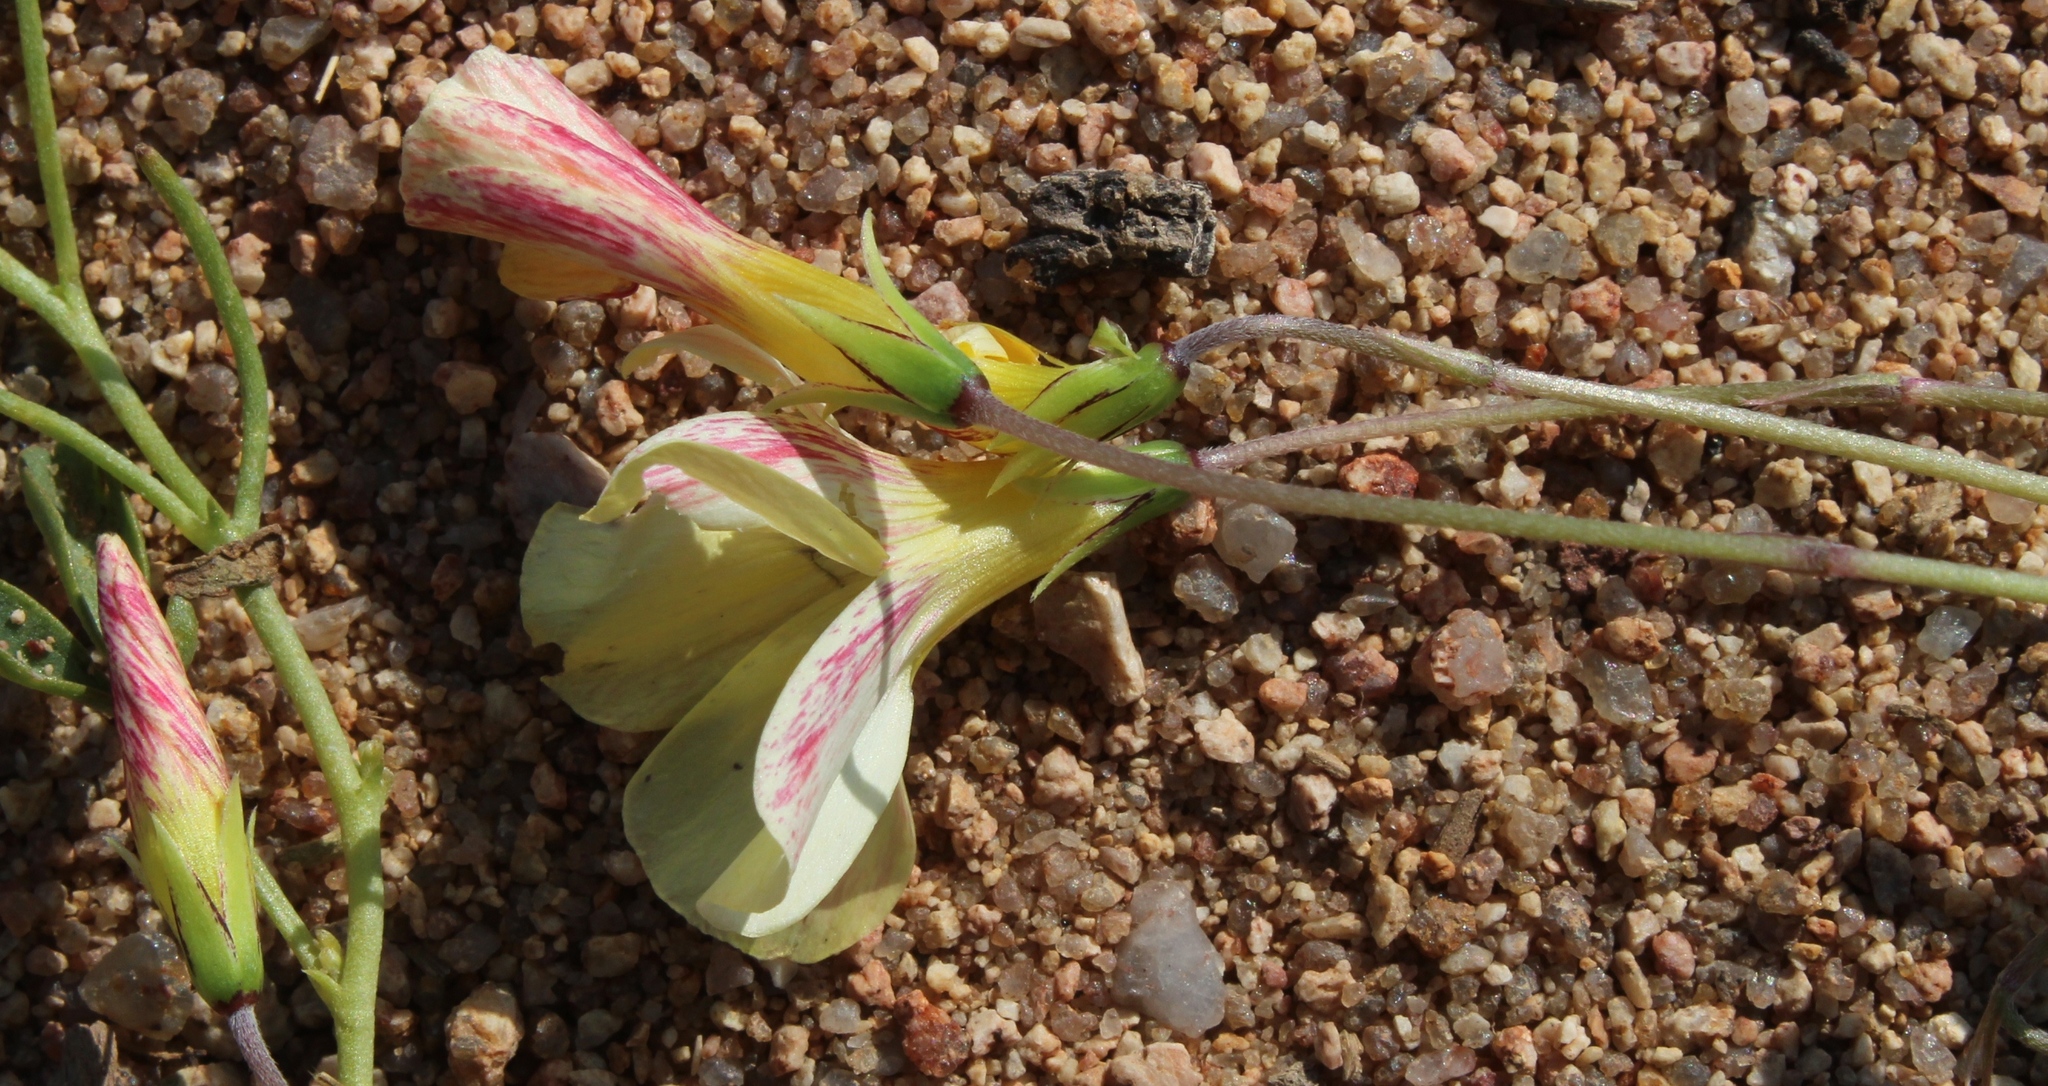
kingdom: Plantae
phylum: Tracheophyta
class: Magnoliopsida
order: Oxalidales
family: Oxalidaceae
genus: Oxalis
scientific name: Oxalis obtusa
